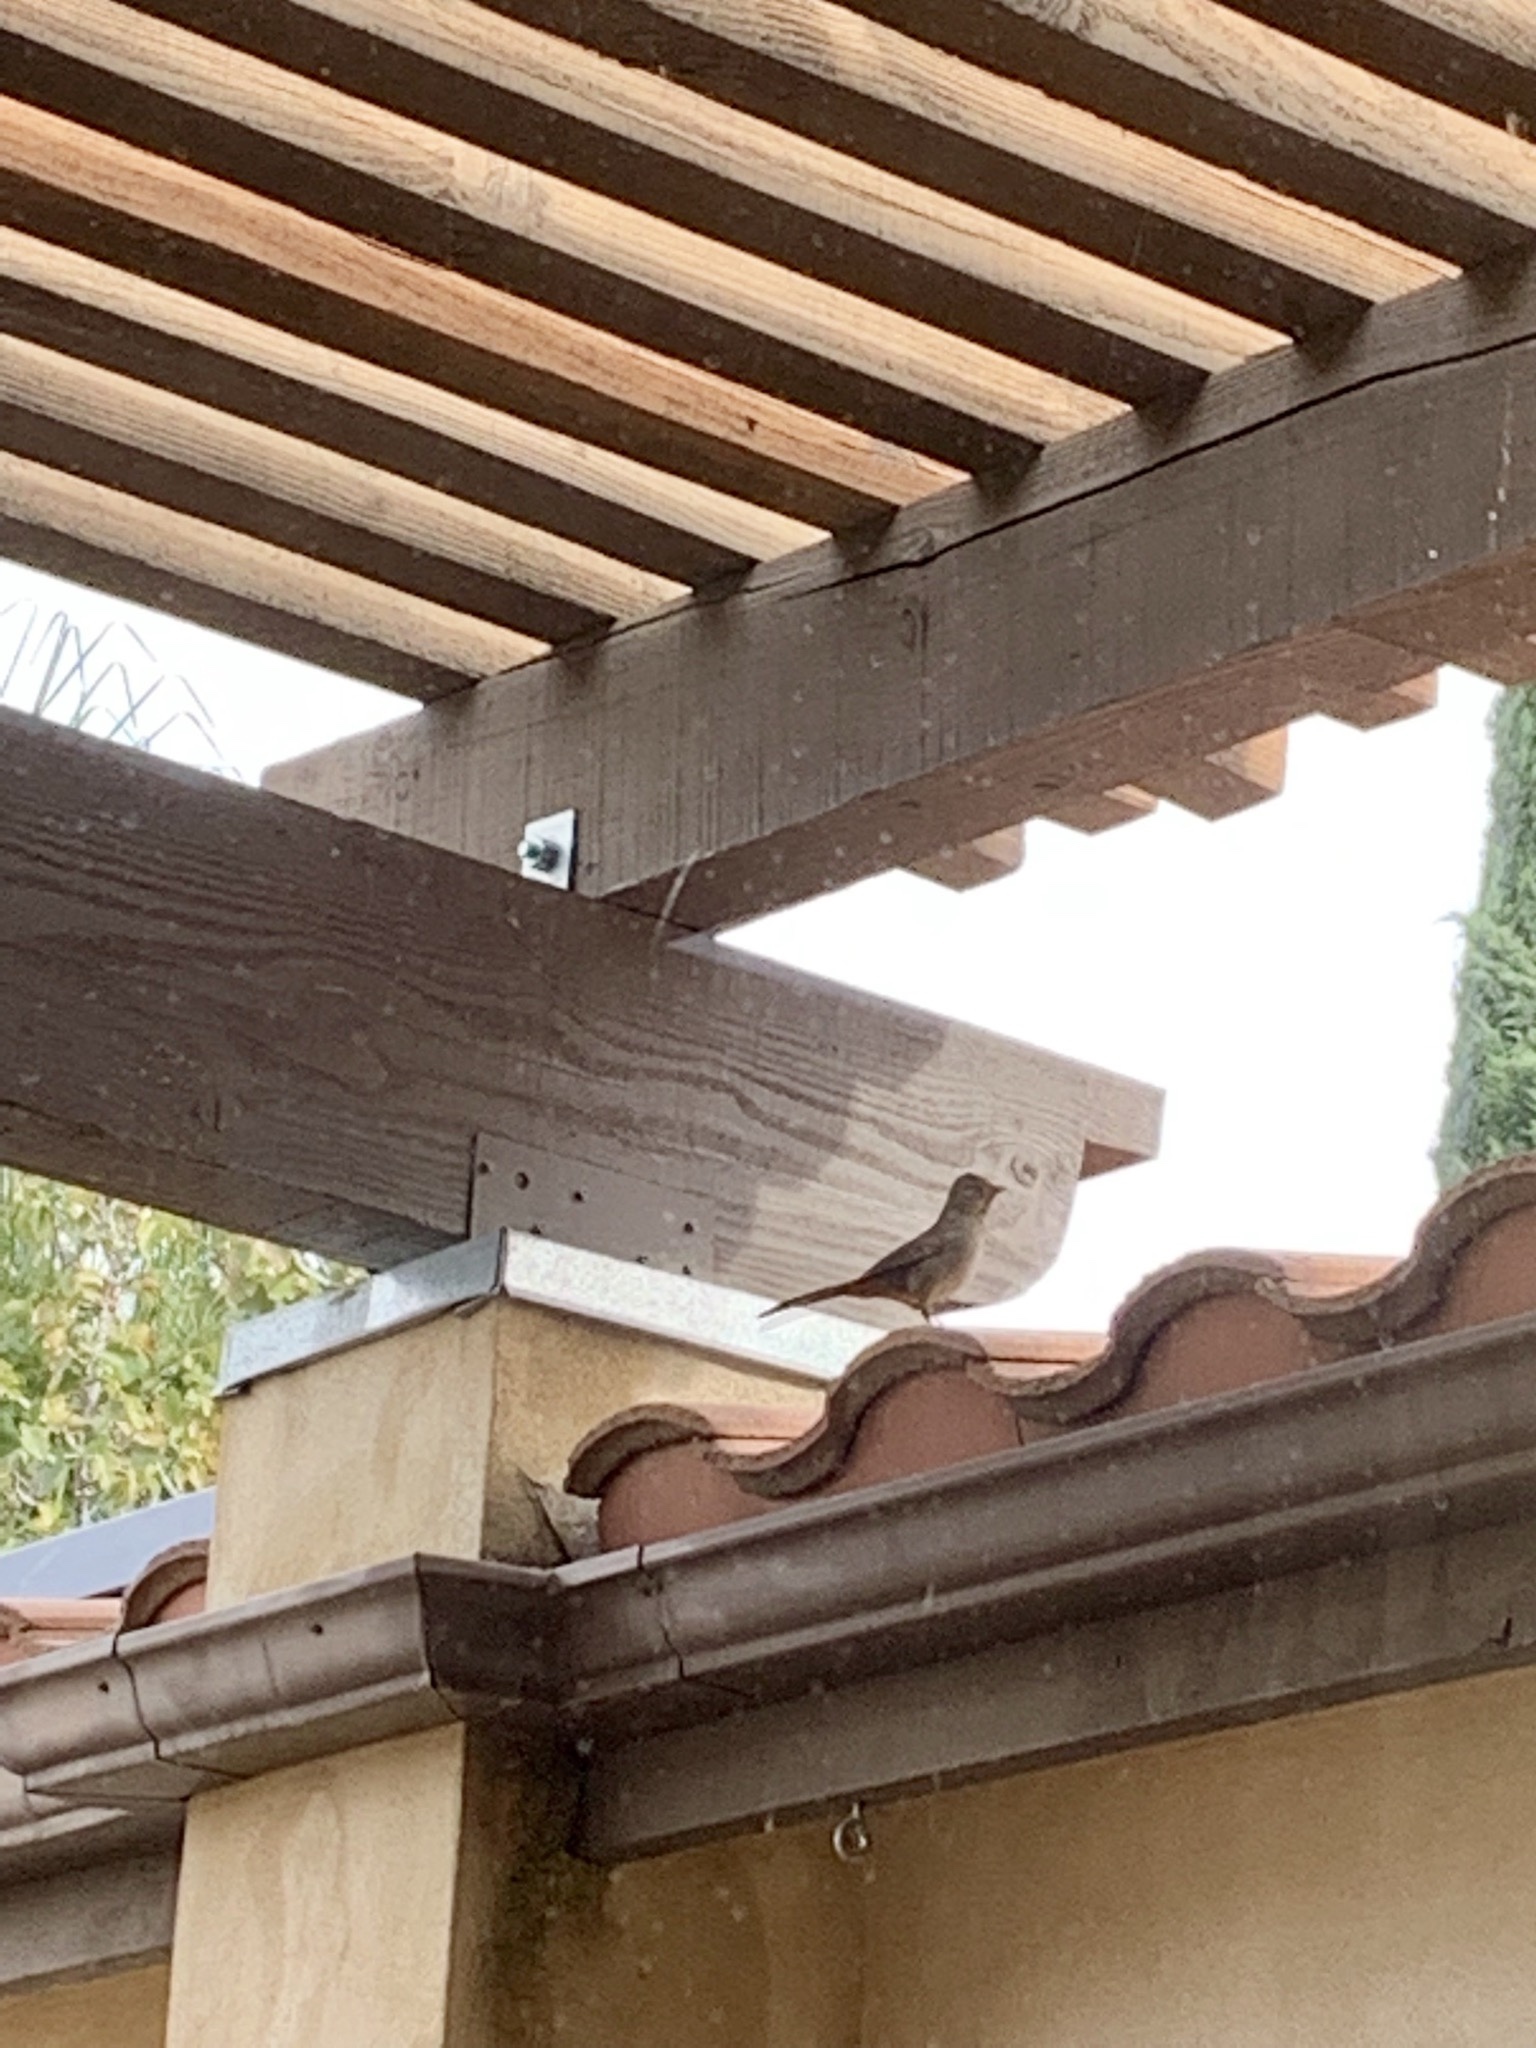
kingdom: Animalia
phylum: Chordata
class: Aves
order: Passeriformes
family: Passerellidae
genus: Melozone
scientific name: Melozone crissalis
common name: California towhee
